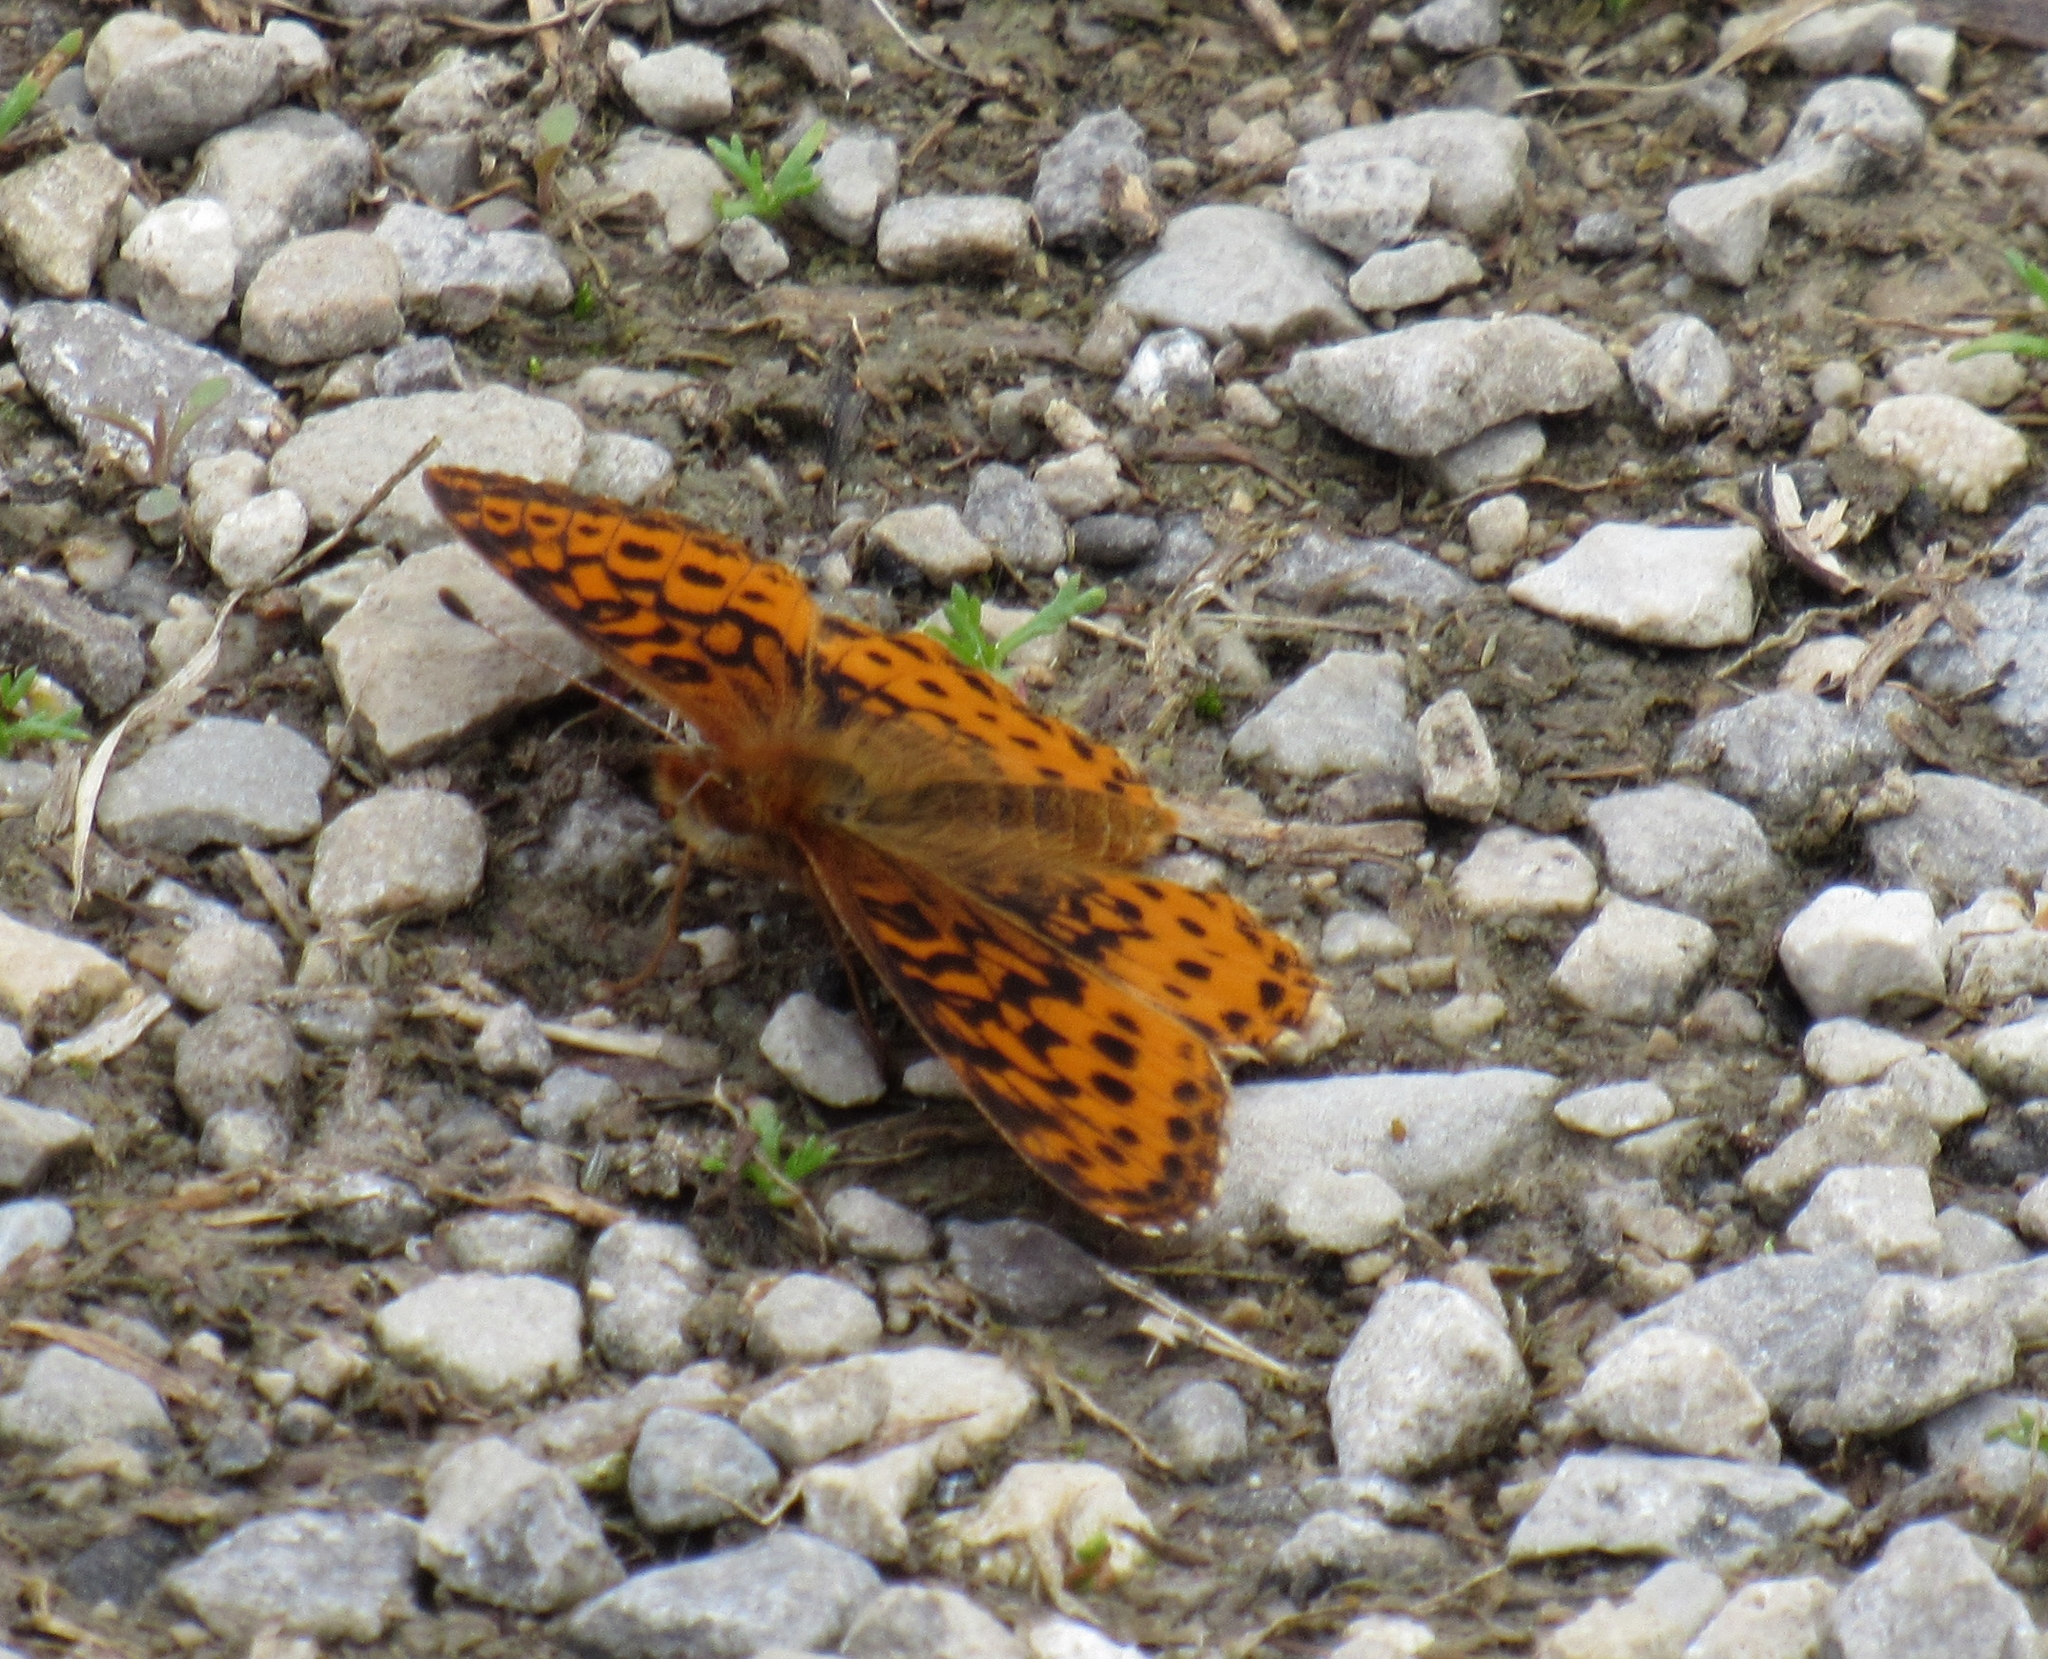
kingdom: Animalia
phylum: Arthropoda
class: Insecta
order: Lepidoptera
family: Nymphalidae
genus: Clossiana
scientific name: Clossiana toddi
